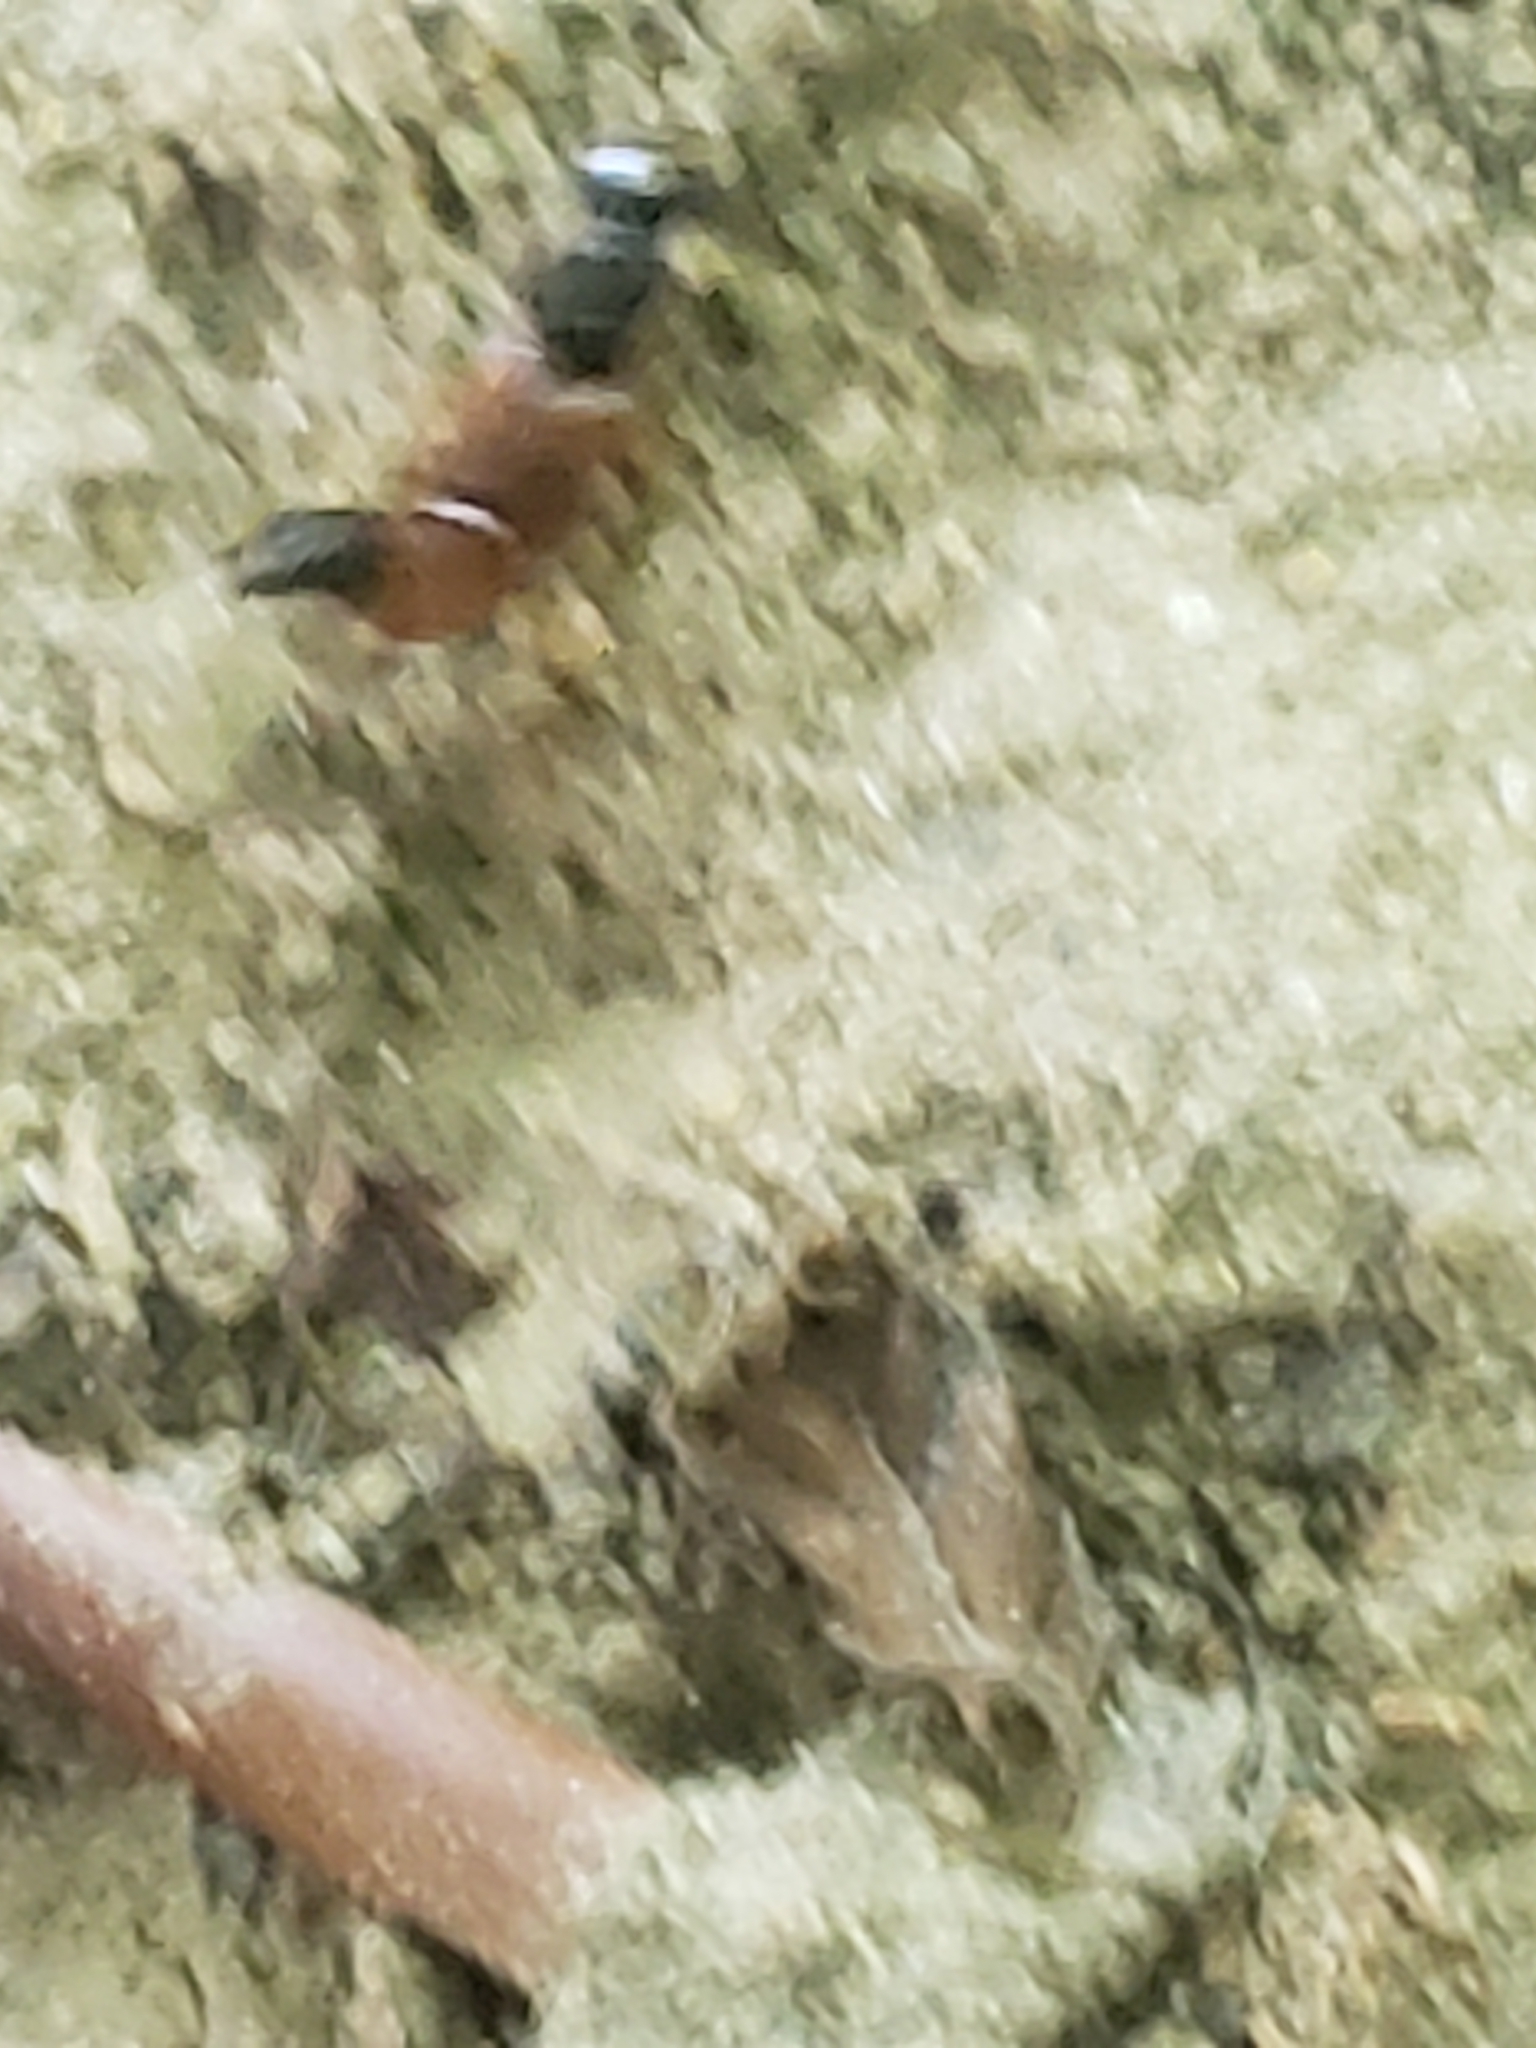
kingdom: Animalia
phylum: Arthropoda
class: Insecta
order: Coleoptera
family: Staphylinidae
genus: Belonuchus
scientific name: Belonuchus rufipennis
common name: Large rove beetle
